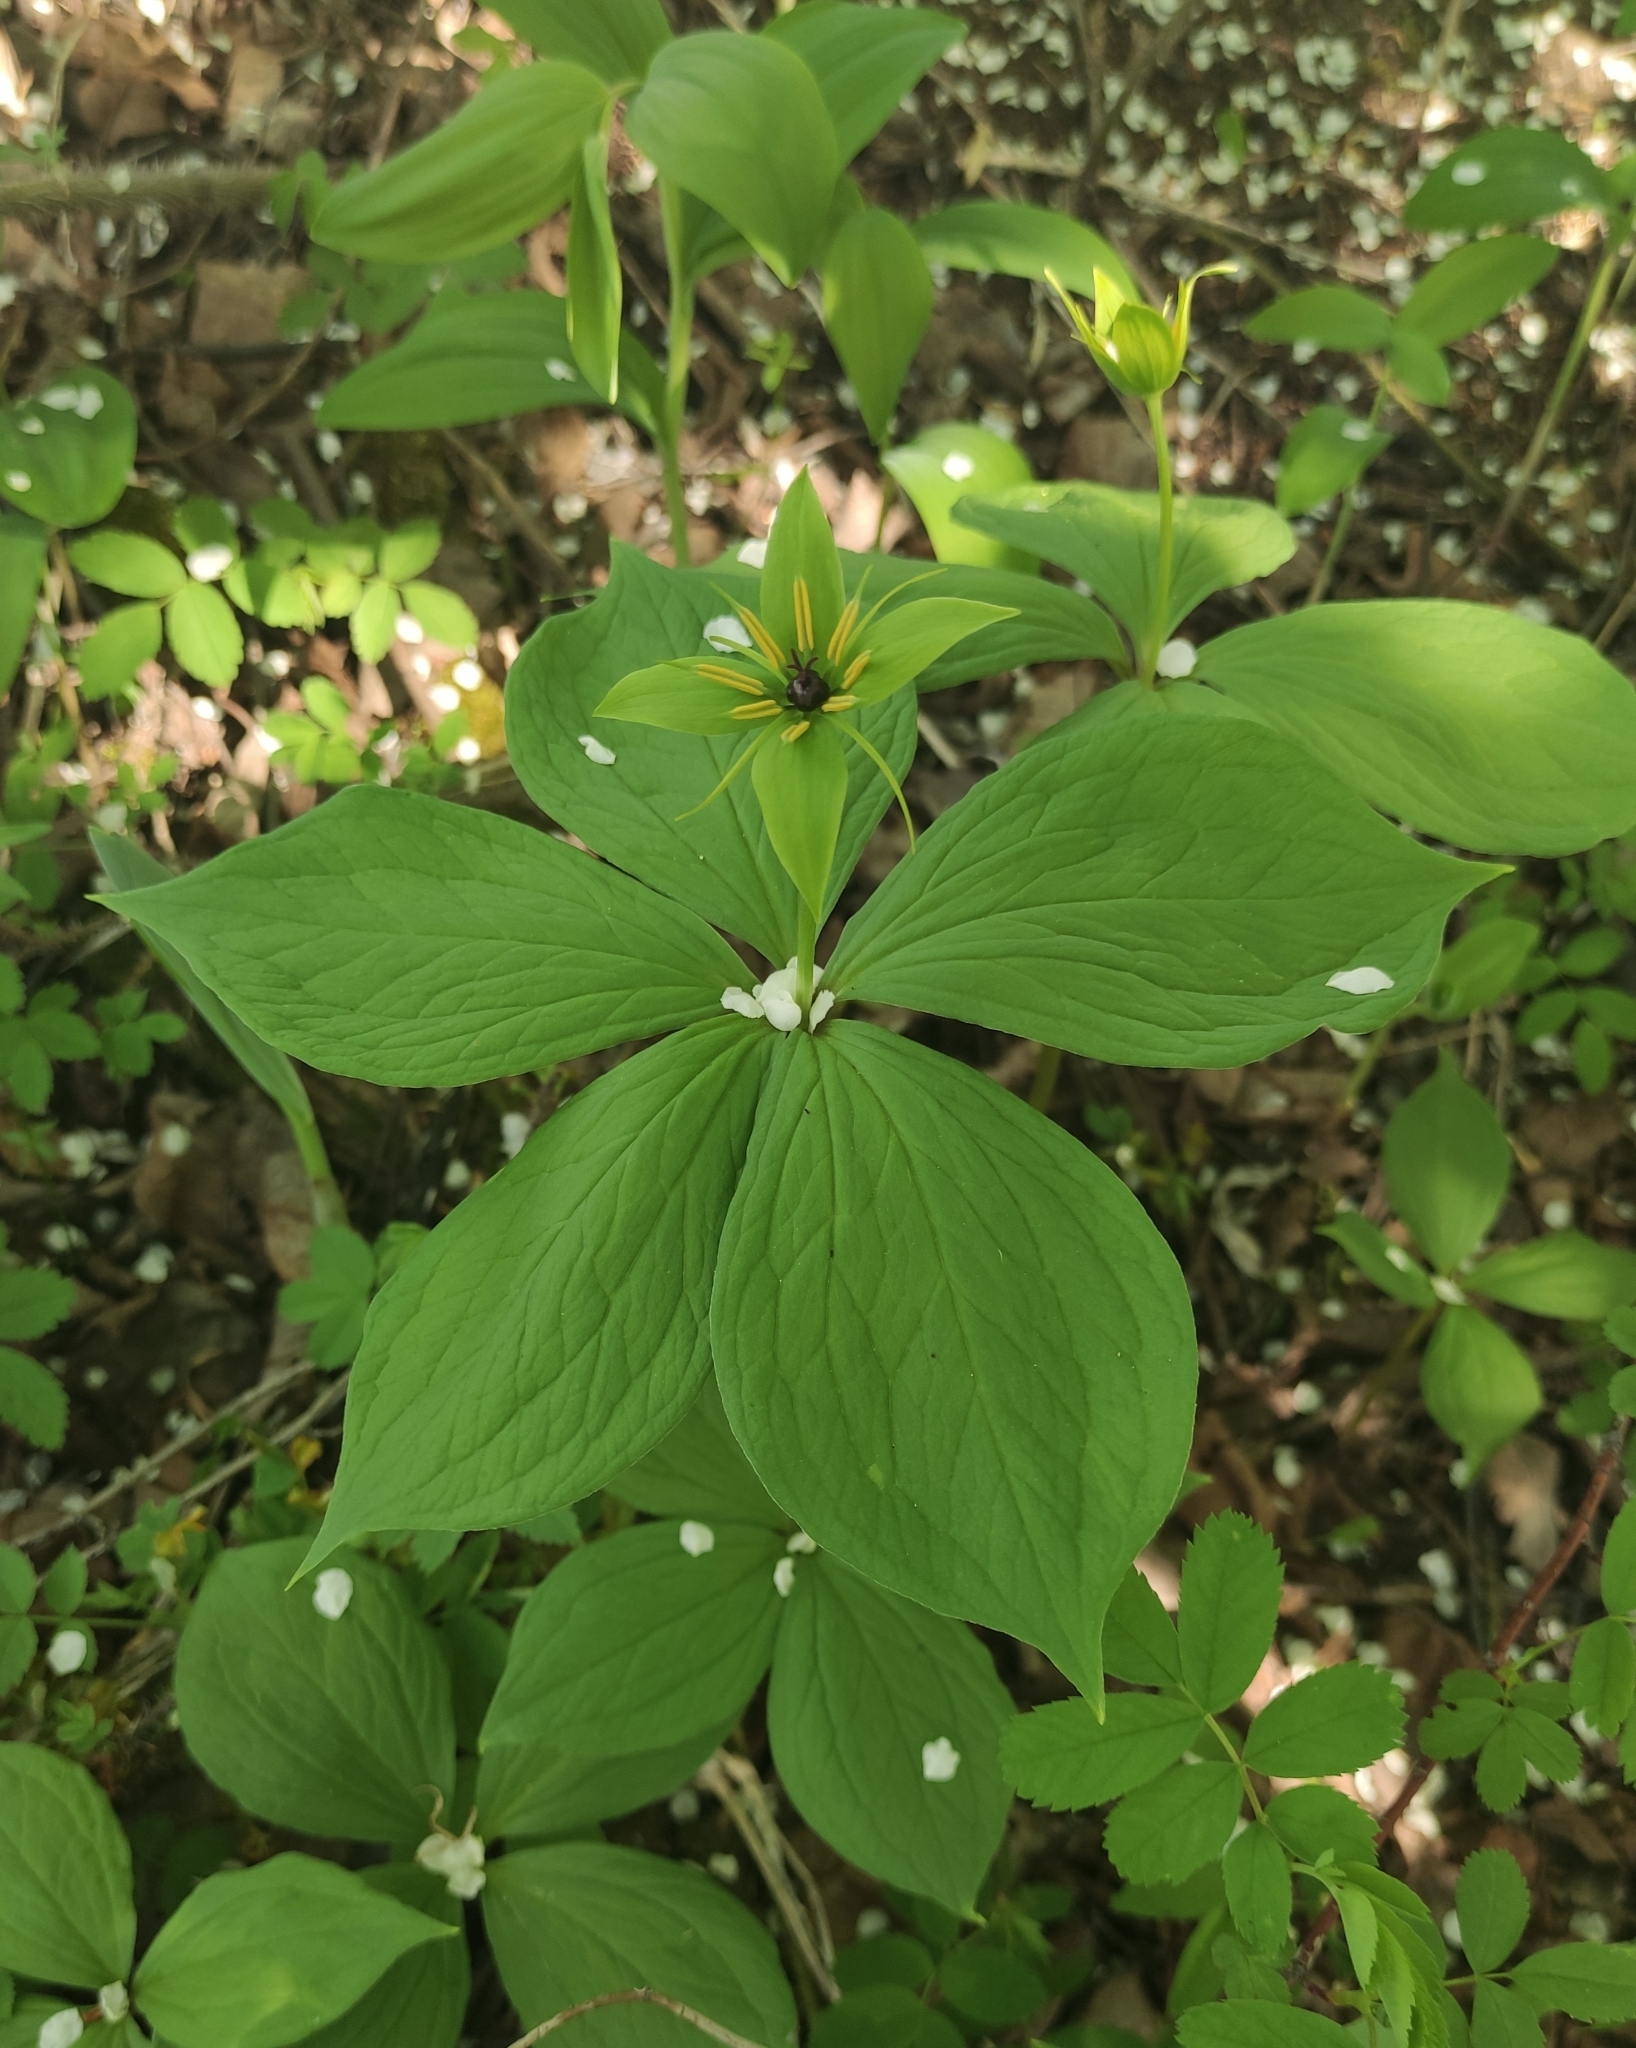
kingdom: Plantae
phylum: Tracheophyta
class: Liliopsida
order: Liliales
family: Melanthiaceae
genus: Paris
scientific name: Paris verticillata
